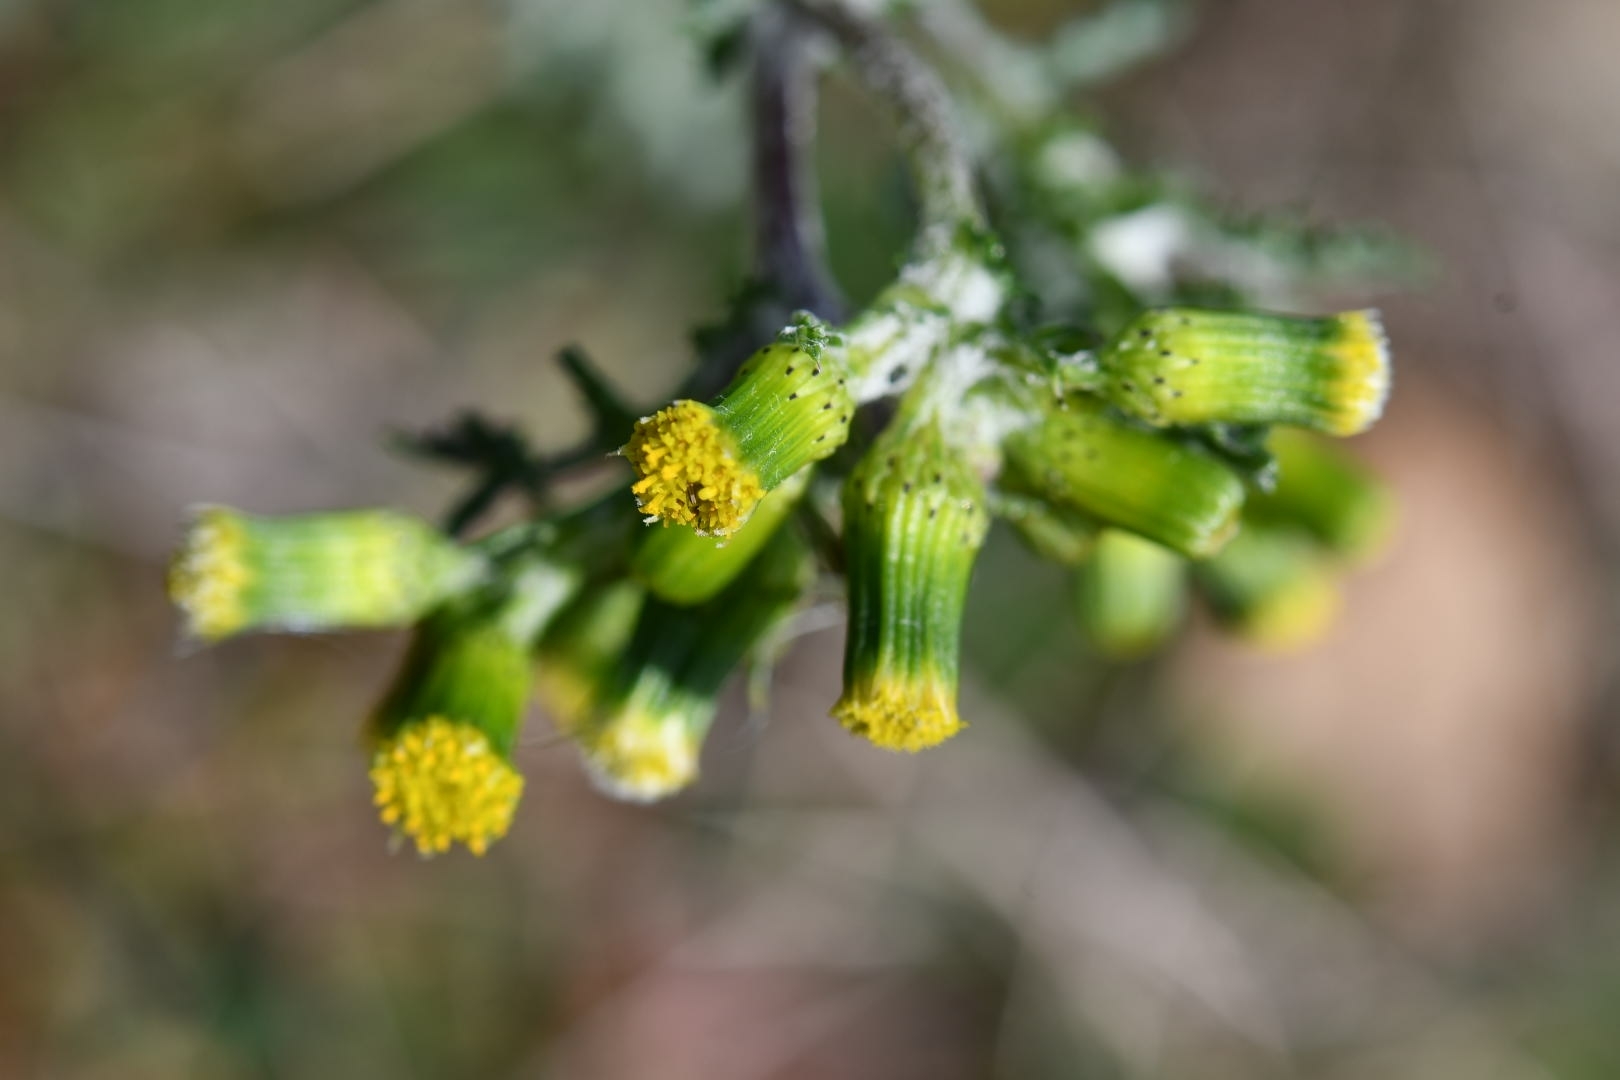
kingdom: Plantae
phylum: Tracheophyta
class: Magnoliopsida
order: Asterales
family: Asteraceae
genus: Senecio
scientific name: Senecio vulgaris
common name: Old-man-in-the-spring
